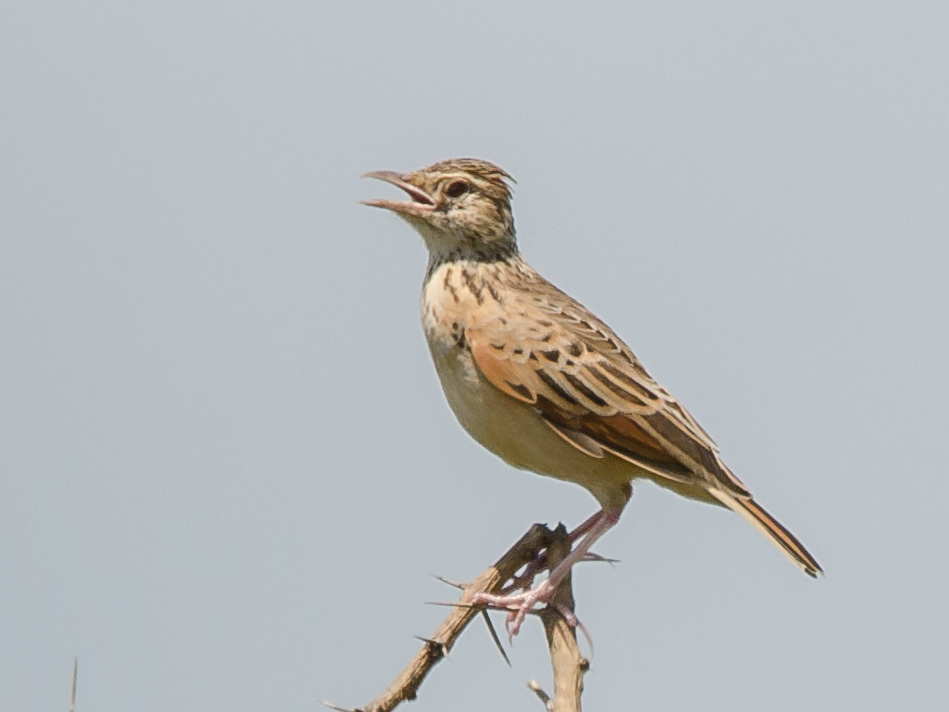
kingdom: Animalia
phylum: Chordata
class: Aves
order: Passeriformes
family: Alaudidae
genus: Mirafra
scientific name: Mirafra africana
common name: Rufous-naped lark
